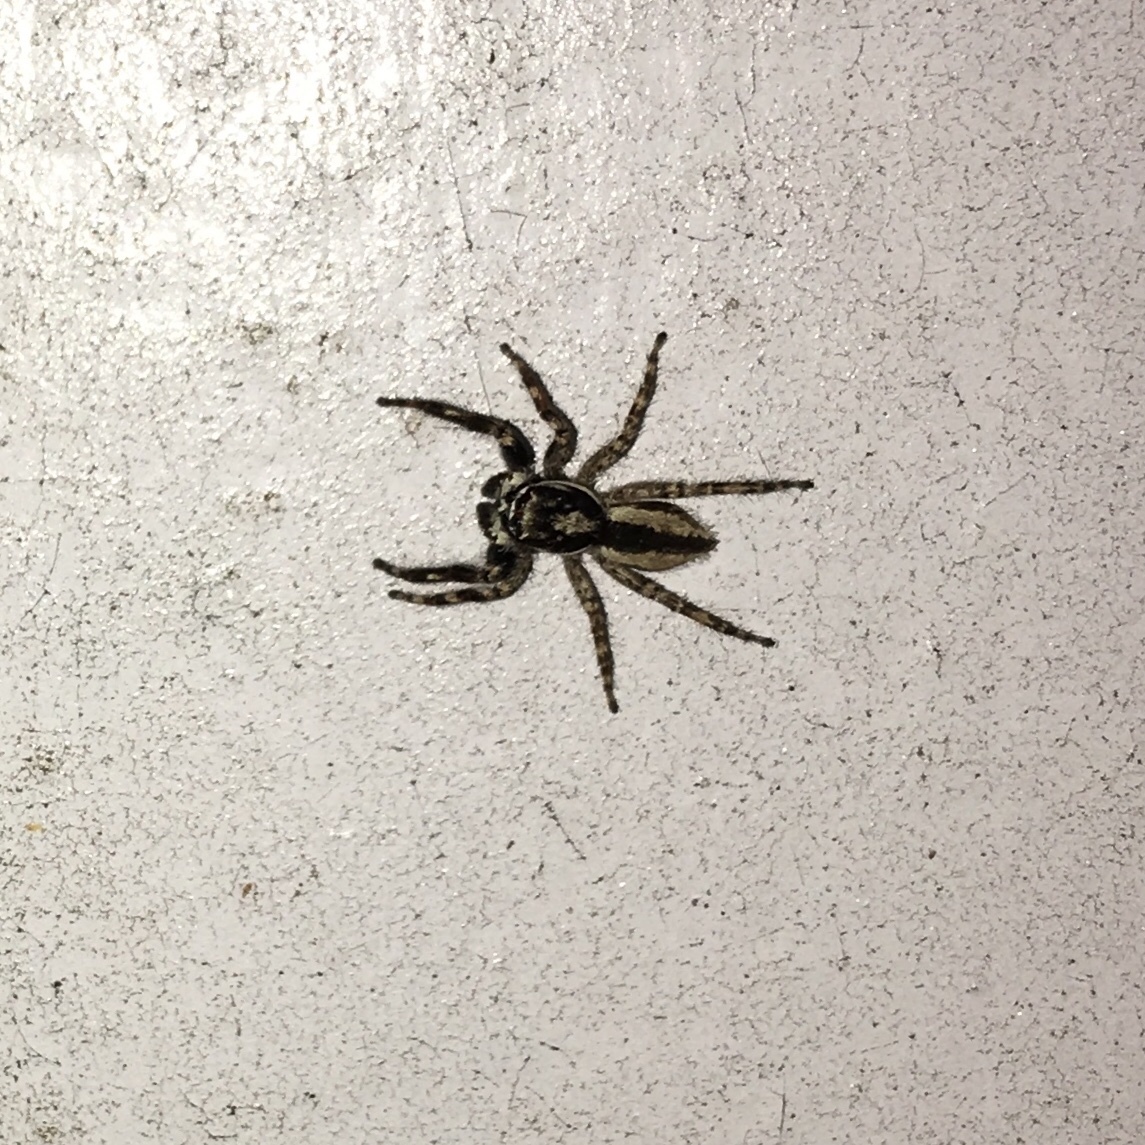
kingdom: Animalia
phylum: Arthropoda
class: Arachnida
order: Araneae
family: Salticidae
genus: Menemerus
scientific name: Menemerus bivittatus
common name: Gray wall jumper
